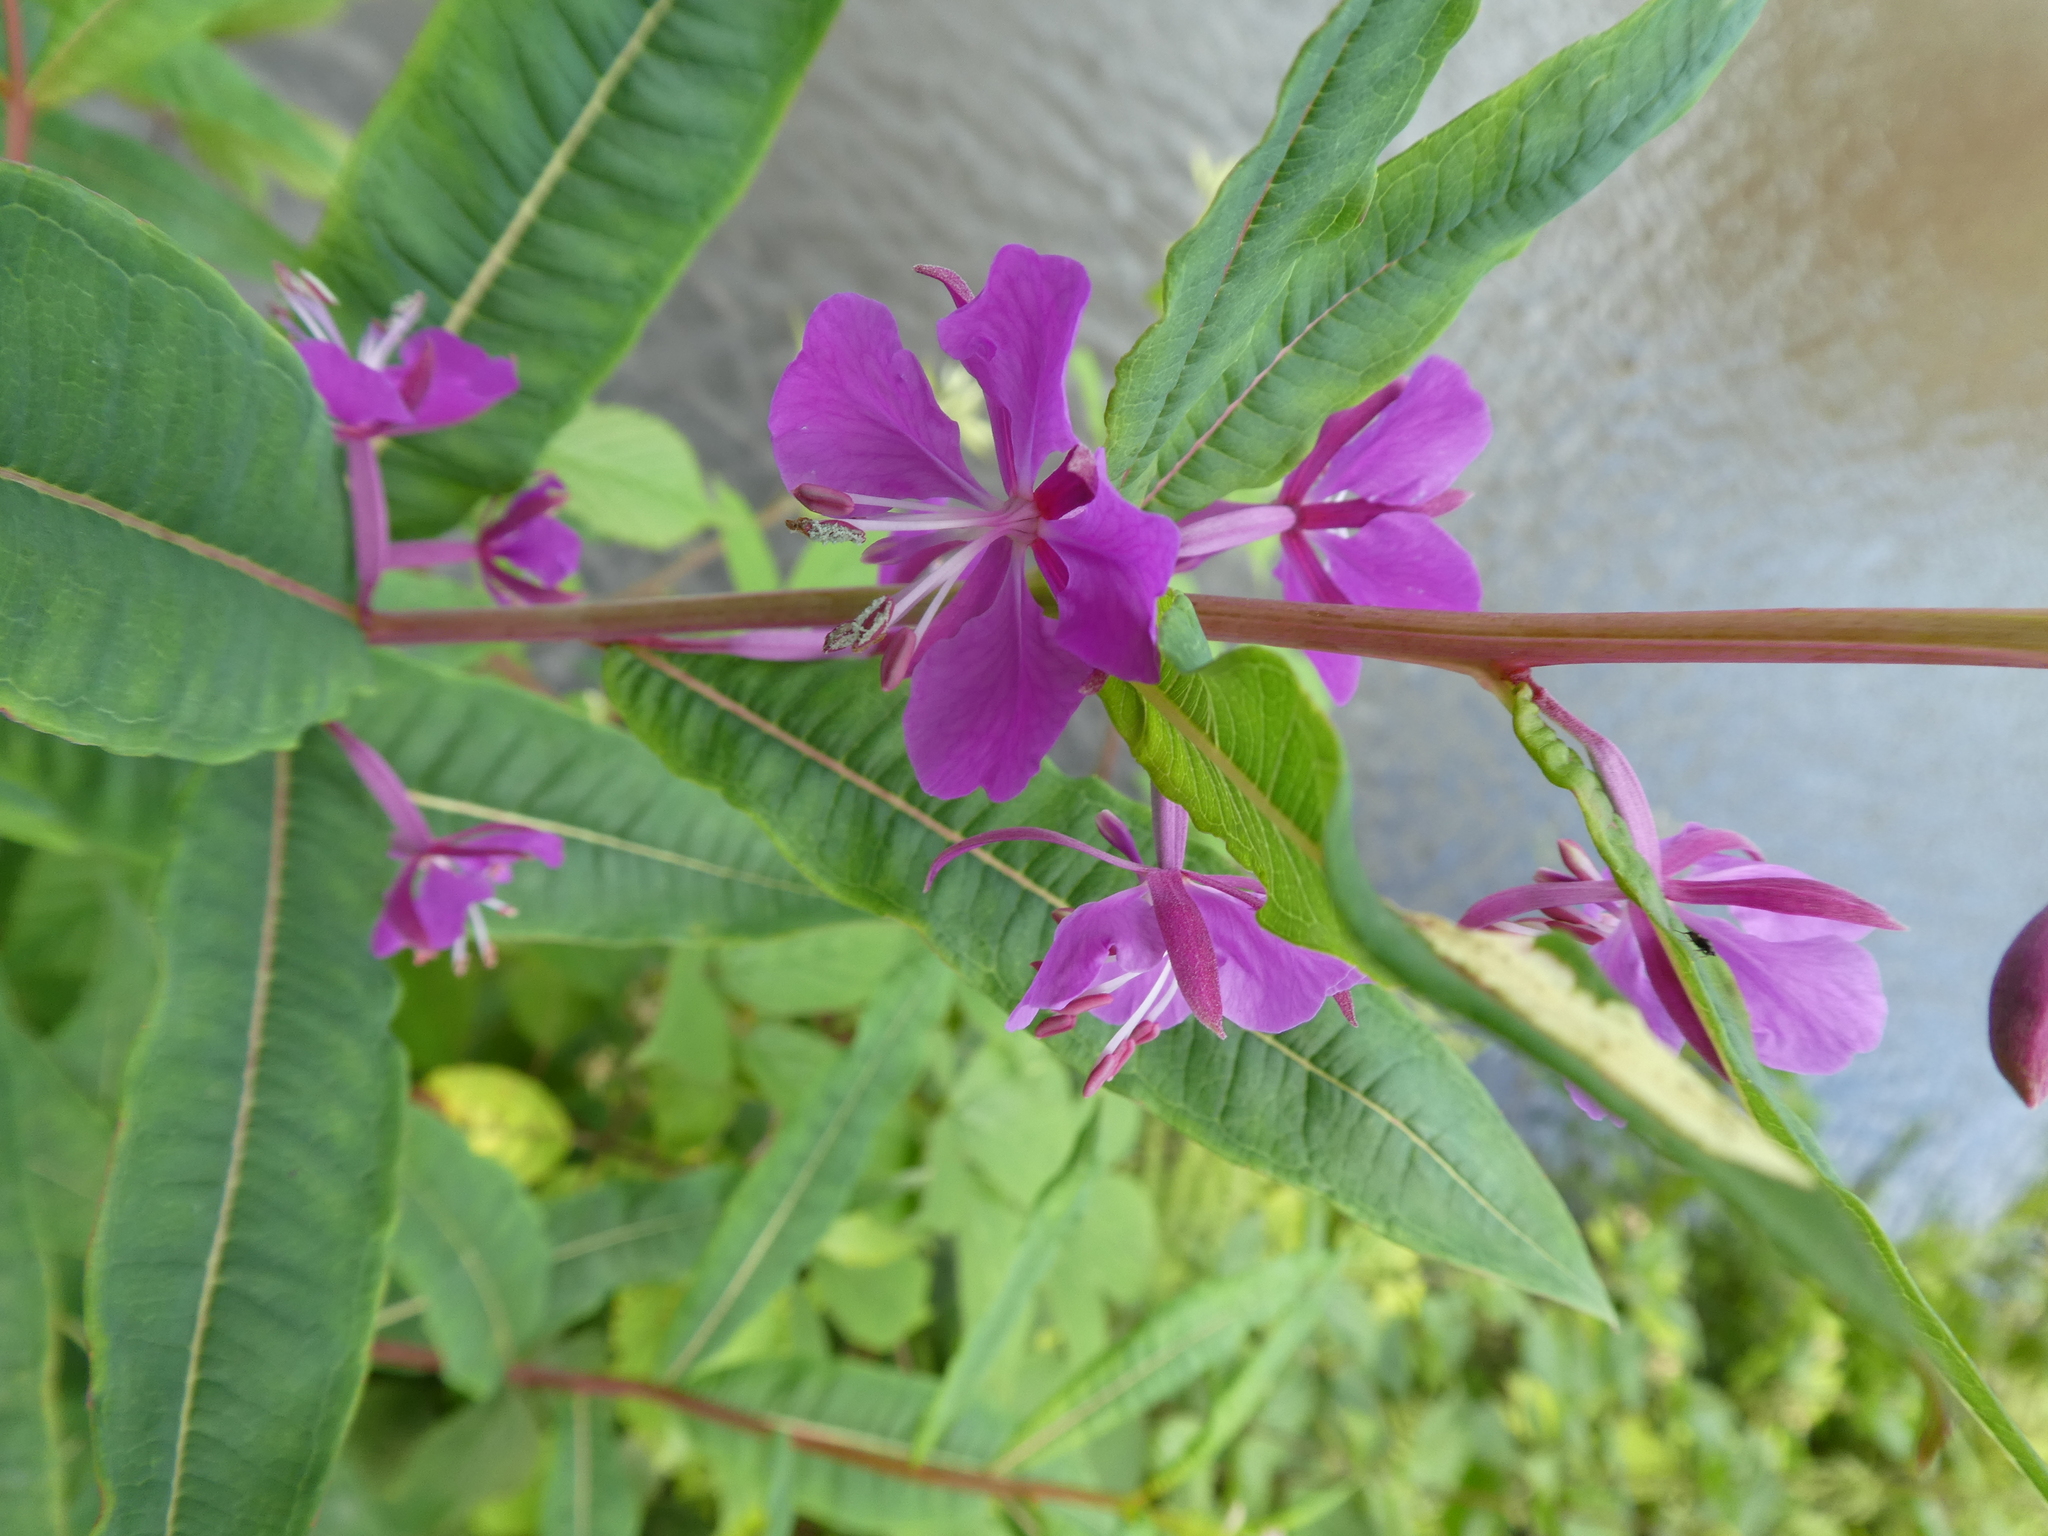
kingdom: Plantae
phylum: Tracheophyta
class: Magnoliopsida
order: Myrtales
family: Onagraceae
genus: Chamaenerion
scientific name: Chamaenerion angustifolium
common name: Fireweed
